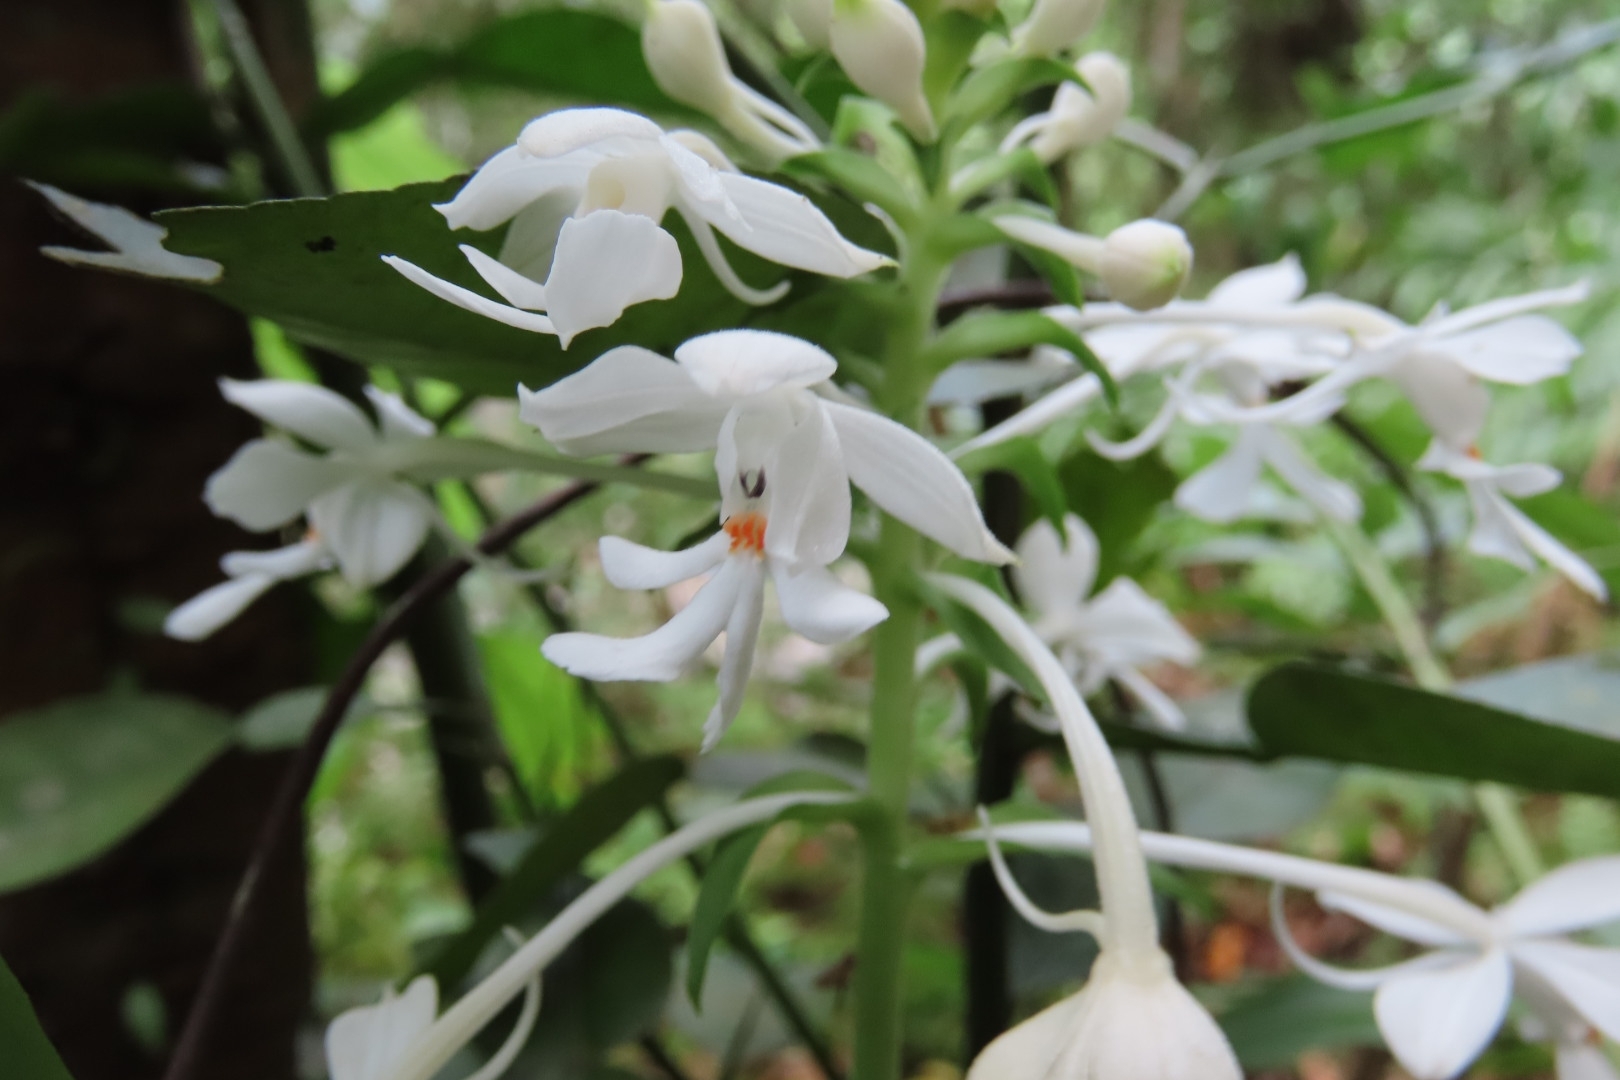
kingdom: Plantae
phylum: Tracheophyta
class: Liliopsida
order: Asparagales
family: Orchidaceae
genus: Calanthe
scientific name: Calanthe triplicata
